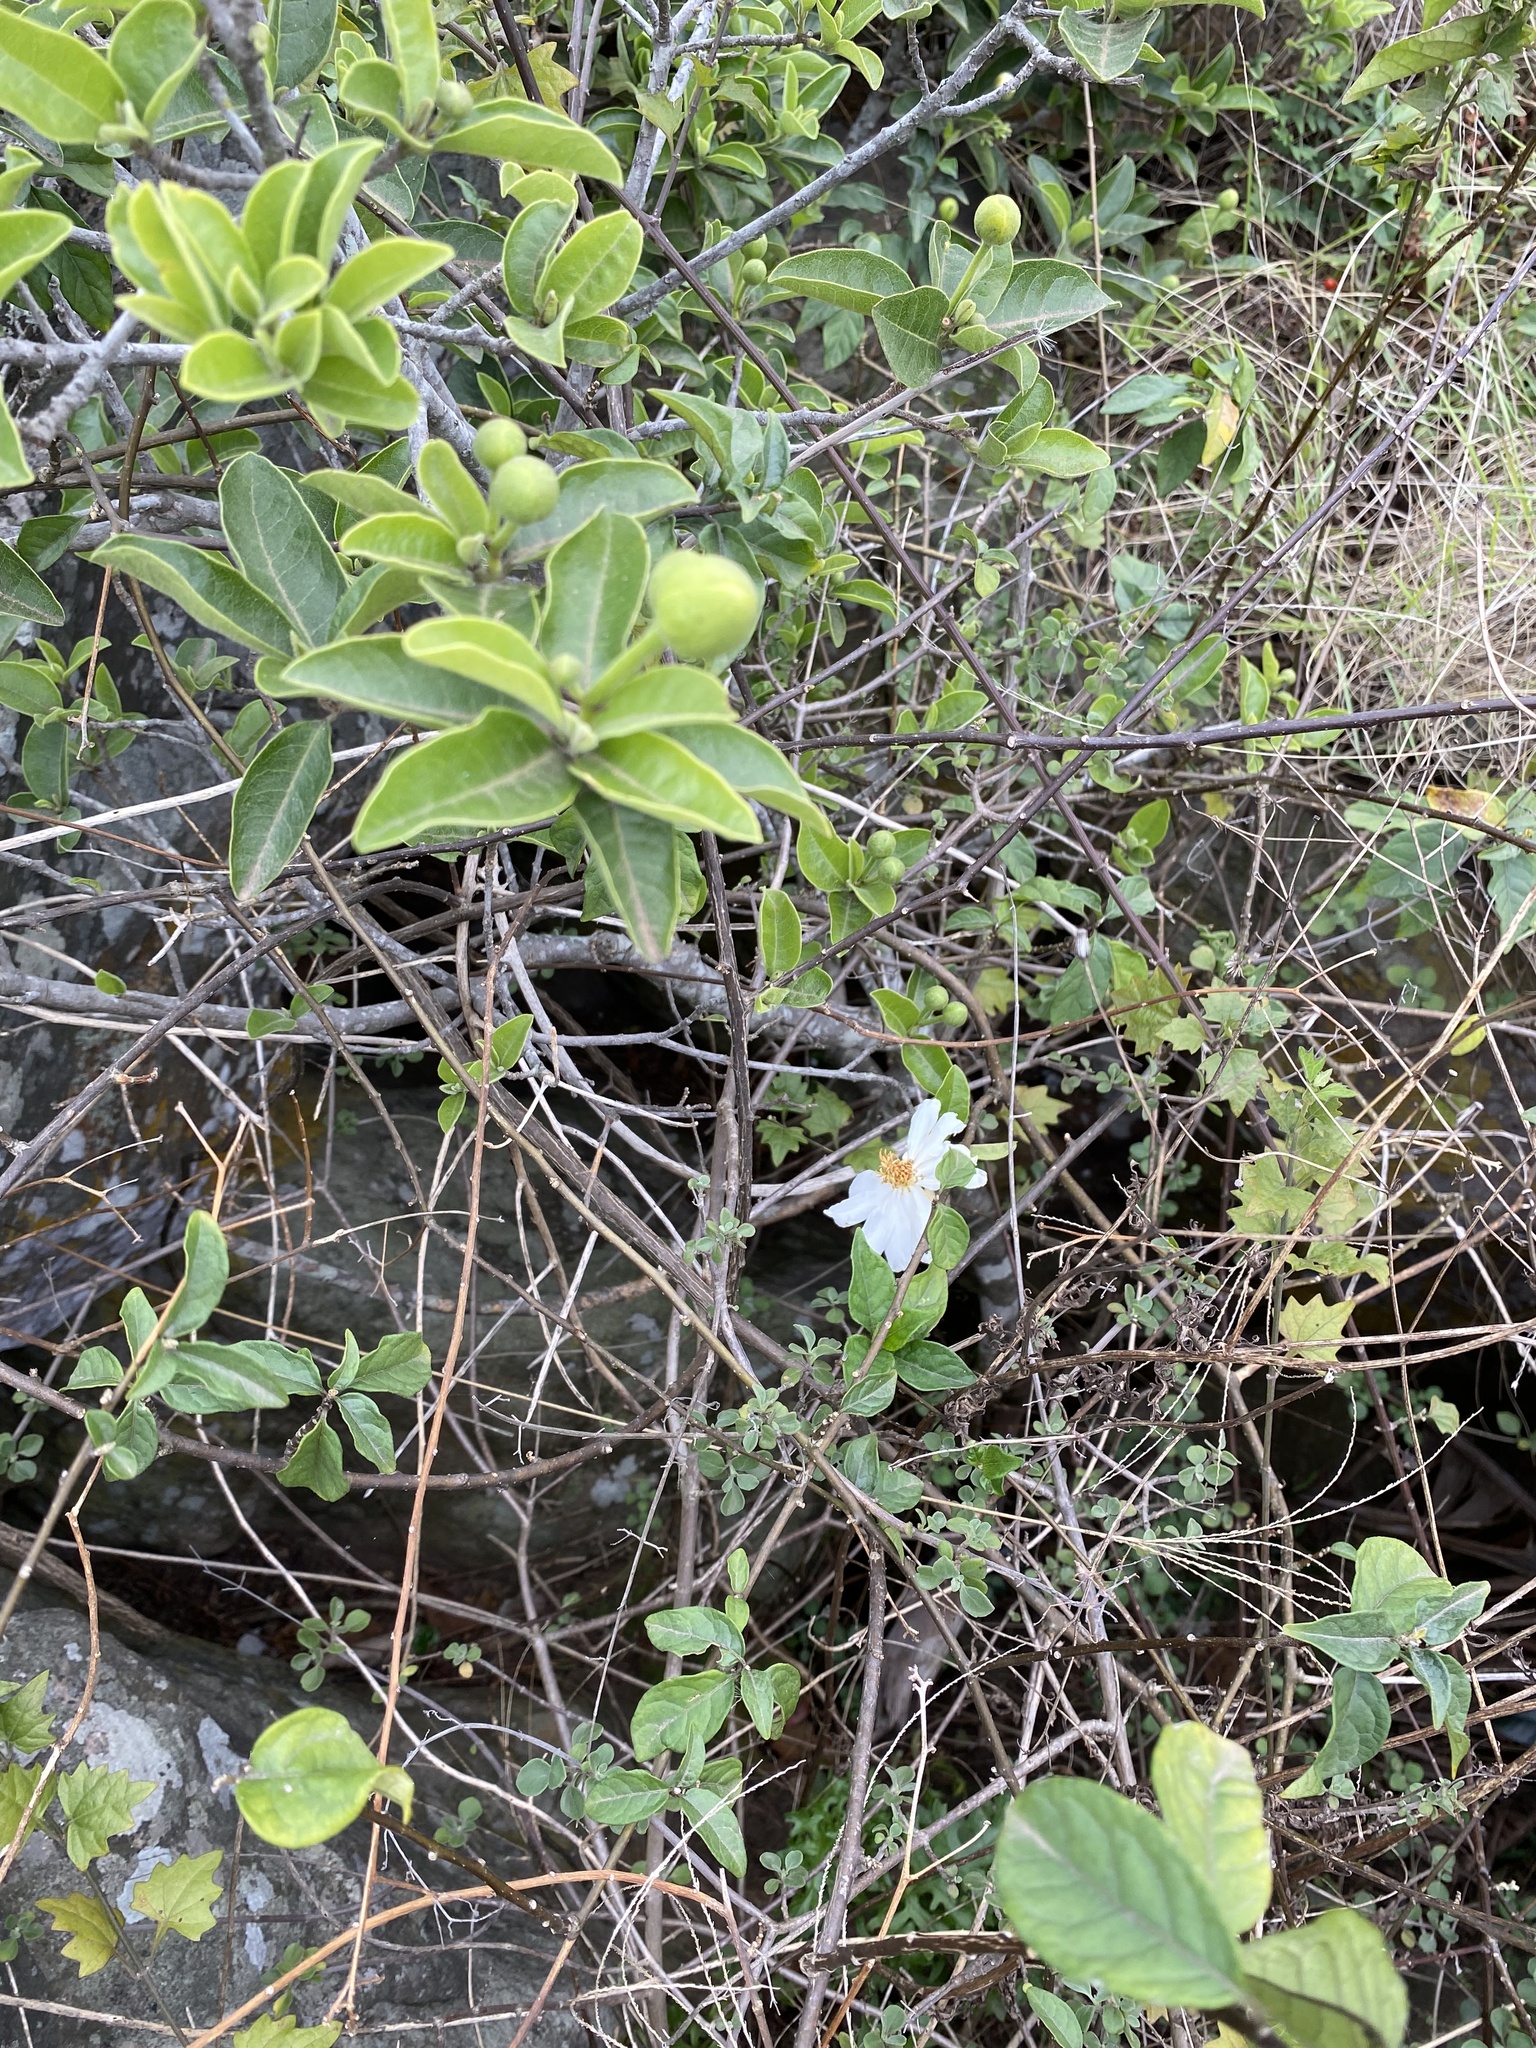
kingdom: Plantae
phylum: Tracheophyta
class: Magnoliopsida
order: Malpighiales
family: Achariaceae
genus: Xylotheca
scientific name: Xylotheca kraussiana
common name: African dog rose
